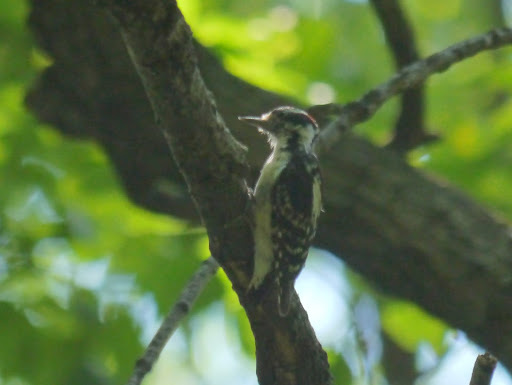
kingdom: Animalia
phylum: Chordata
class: Aves
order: Piciformes
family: Picidae
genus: Leuconotopicus
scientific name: Leuconotopicus villosus
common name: Hairy woodpecker
